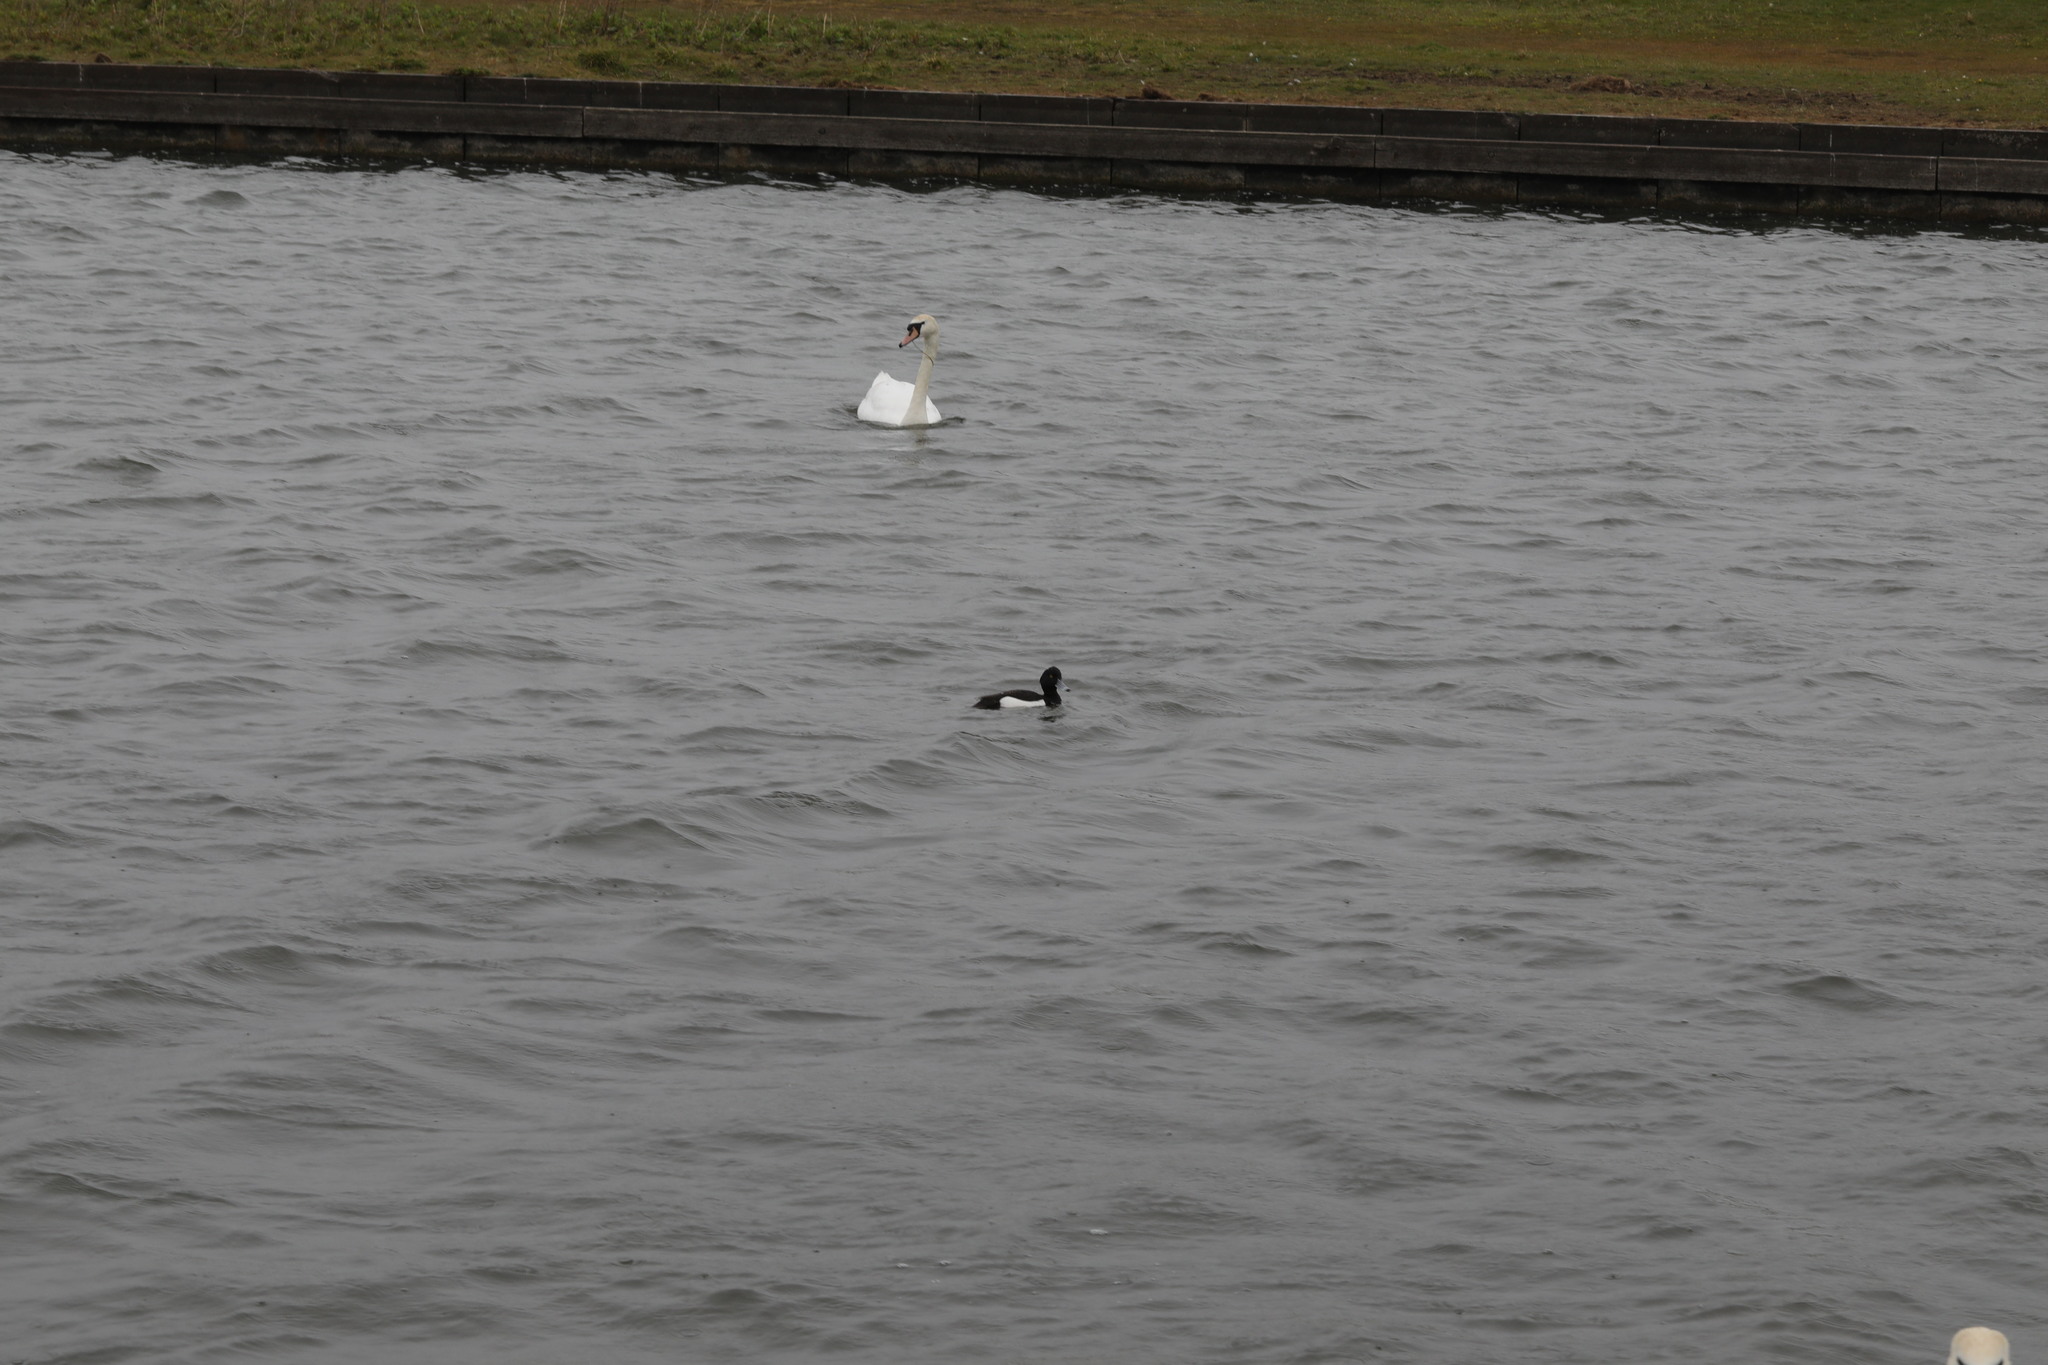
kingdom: Animalia
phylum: Chordata
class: Aves
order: Anseriformes
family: Anatidae
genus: Aythya
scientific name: Aythya fuligula
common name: Tufted duck
